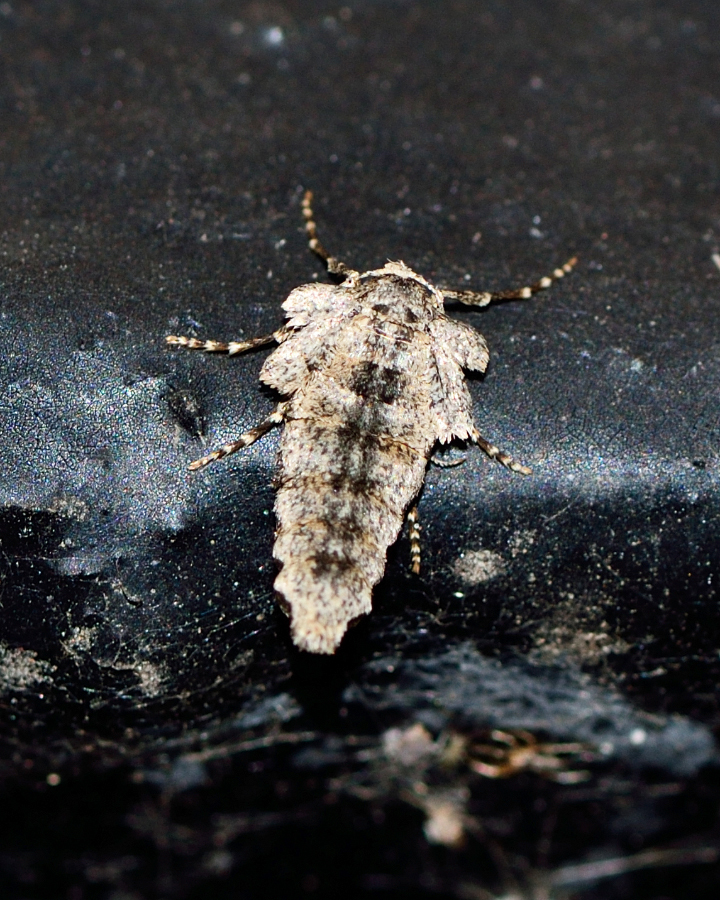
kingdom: Animalia
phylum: Arthropoda
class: Insecta
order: Lepidoptera
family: Geometridae
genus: Larerannis
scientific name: Larerannis orthogrammaria
